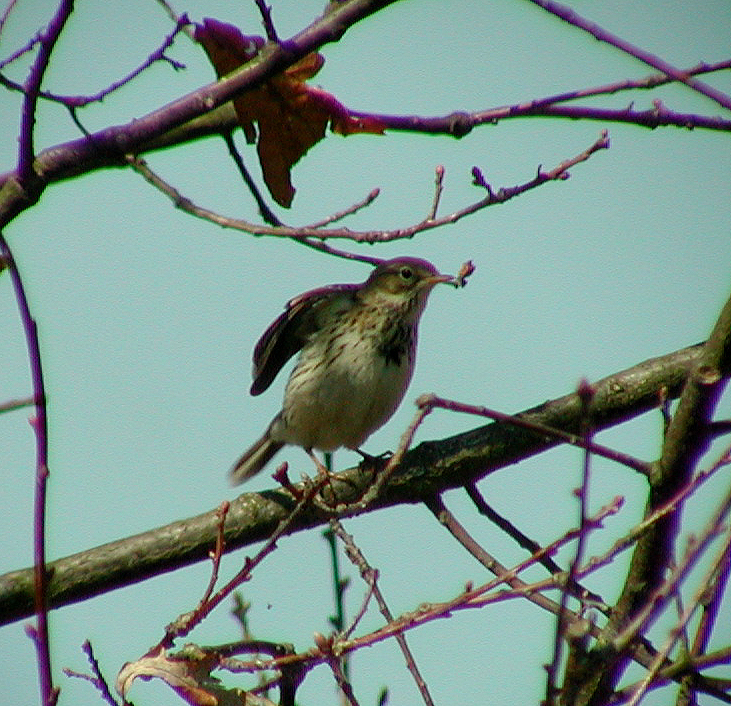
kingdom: Animalia
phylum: Chordata
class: Aves
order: Passeriformes
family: Motacillidae
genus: Anthus
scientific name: Anthus pratensis
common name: Meadow pipit
